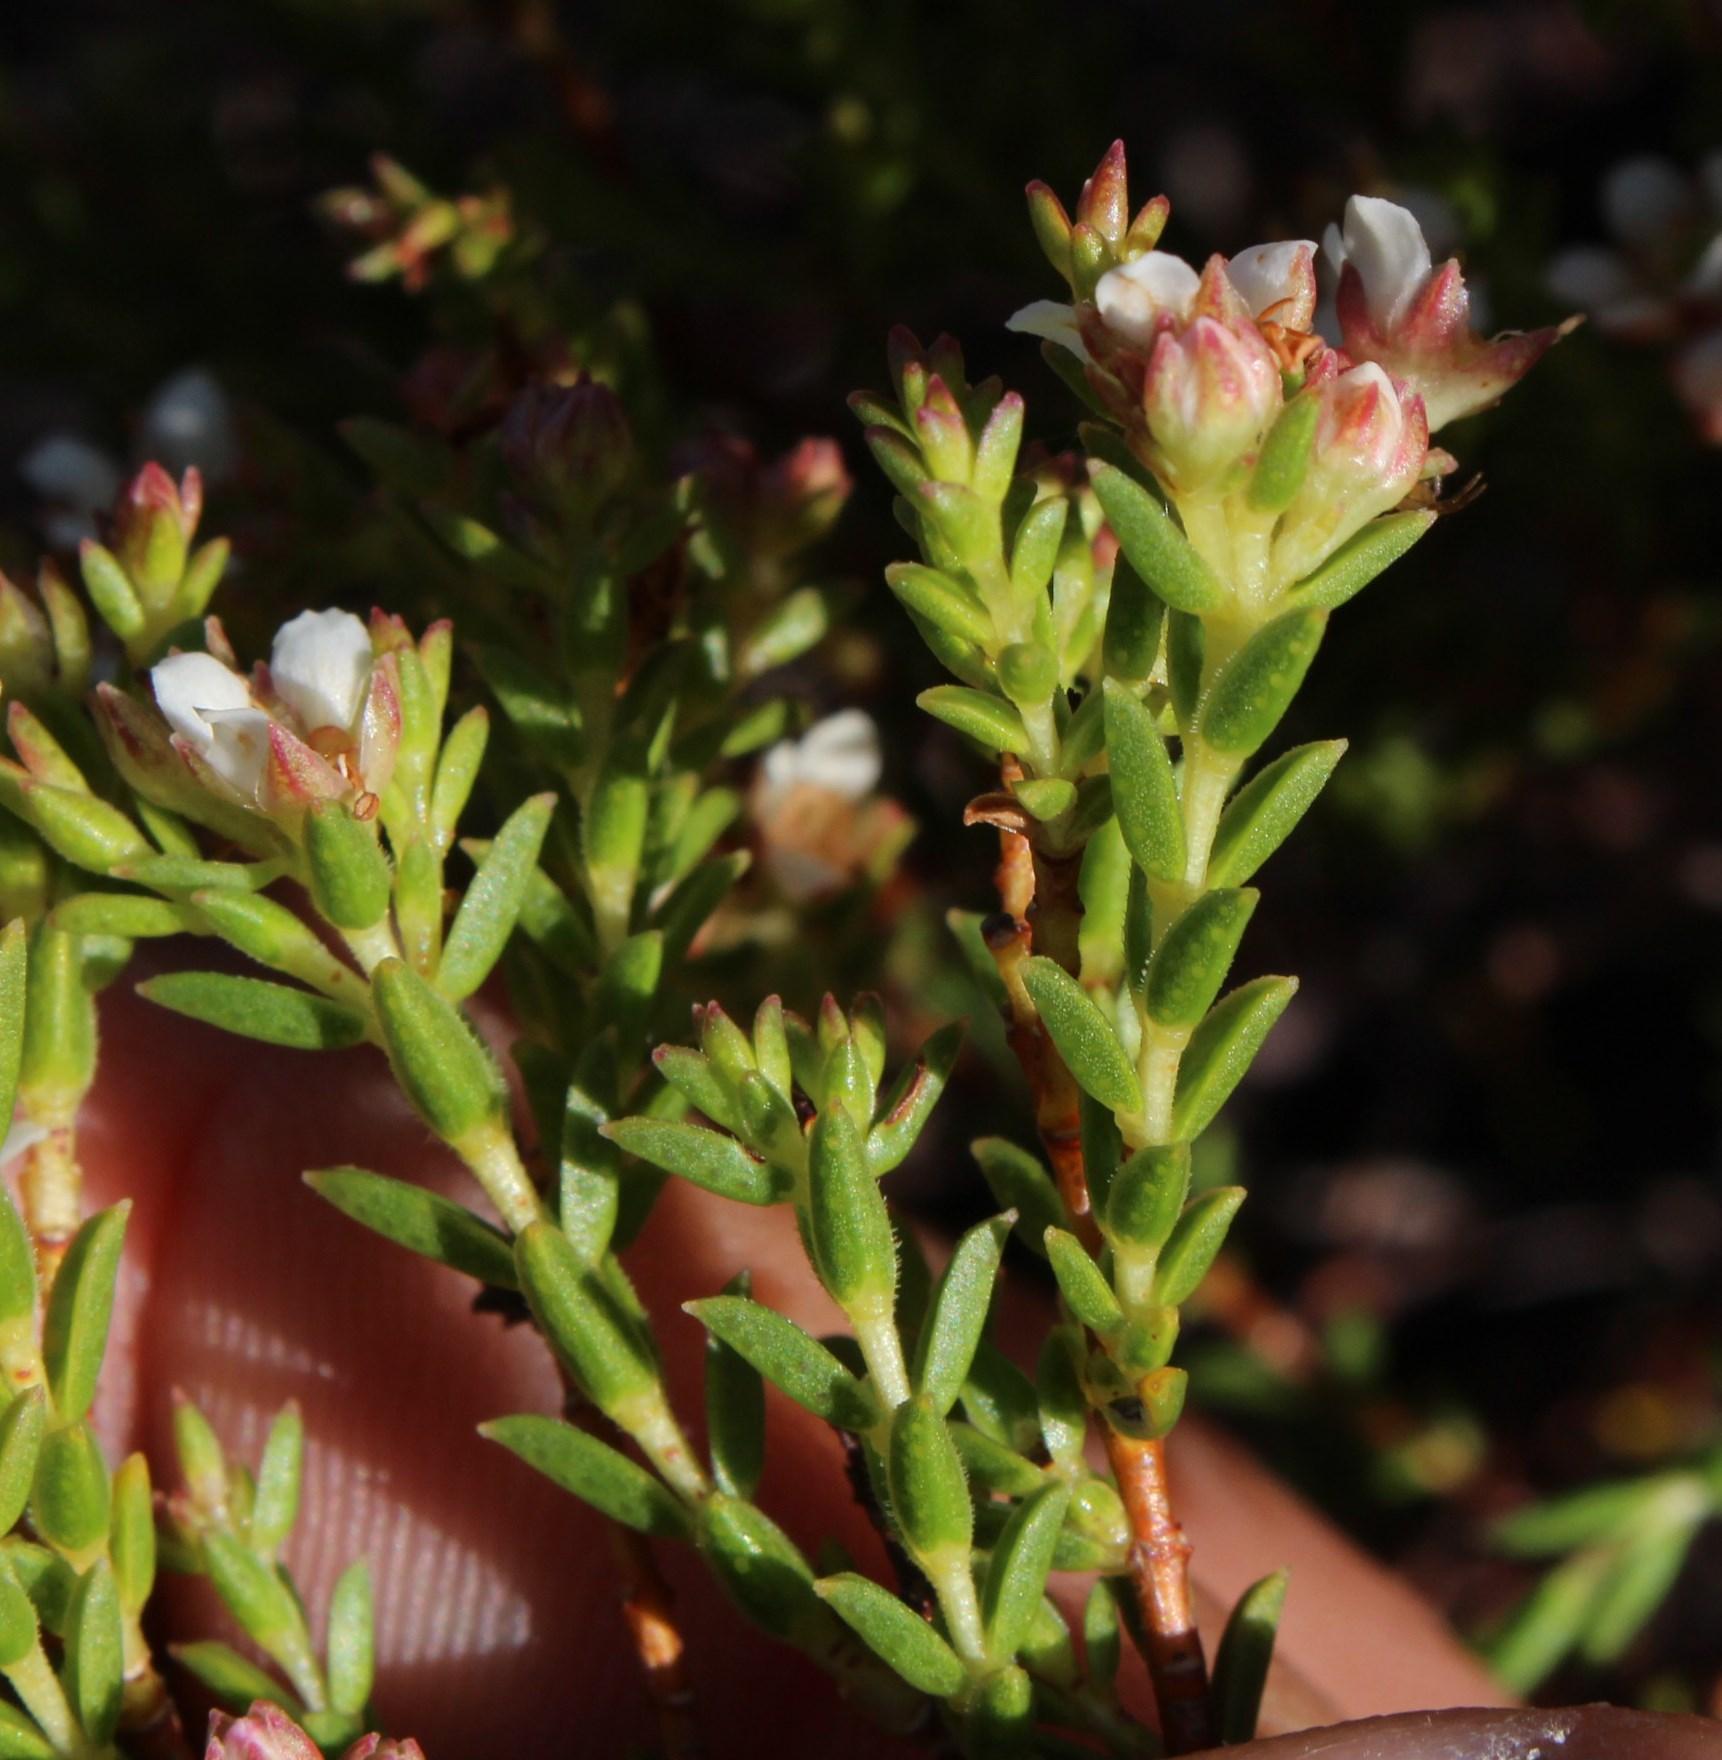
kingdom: Plantae
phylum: Tracheophyta
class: Magnoliopsida
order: Sapindales
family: Rutaceae
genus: Diosma
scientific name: Diosma oppositifolia
